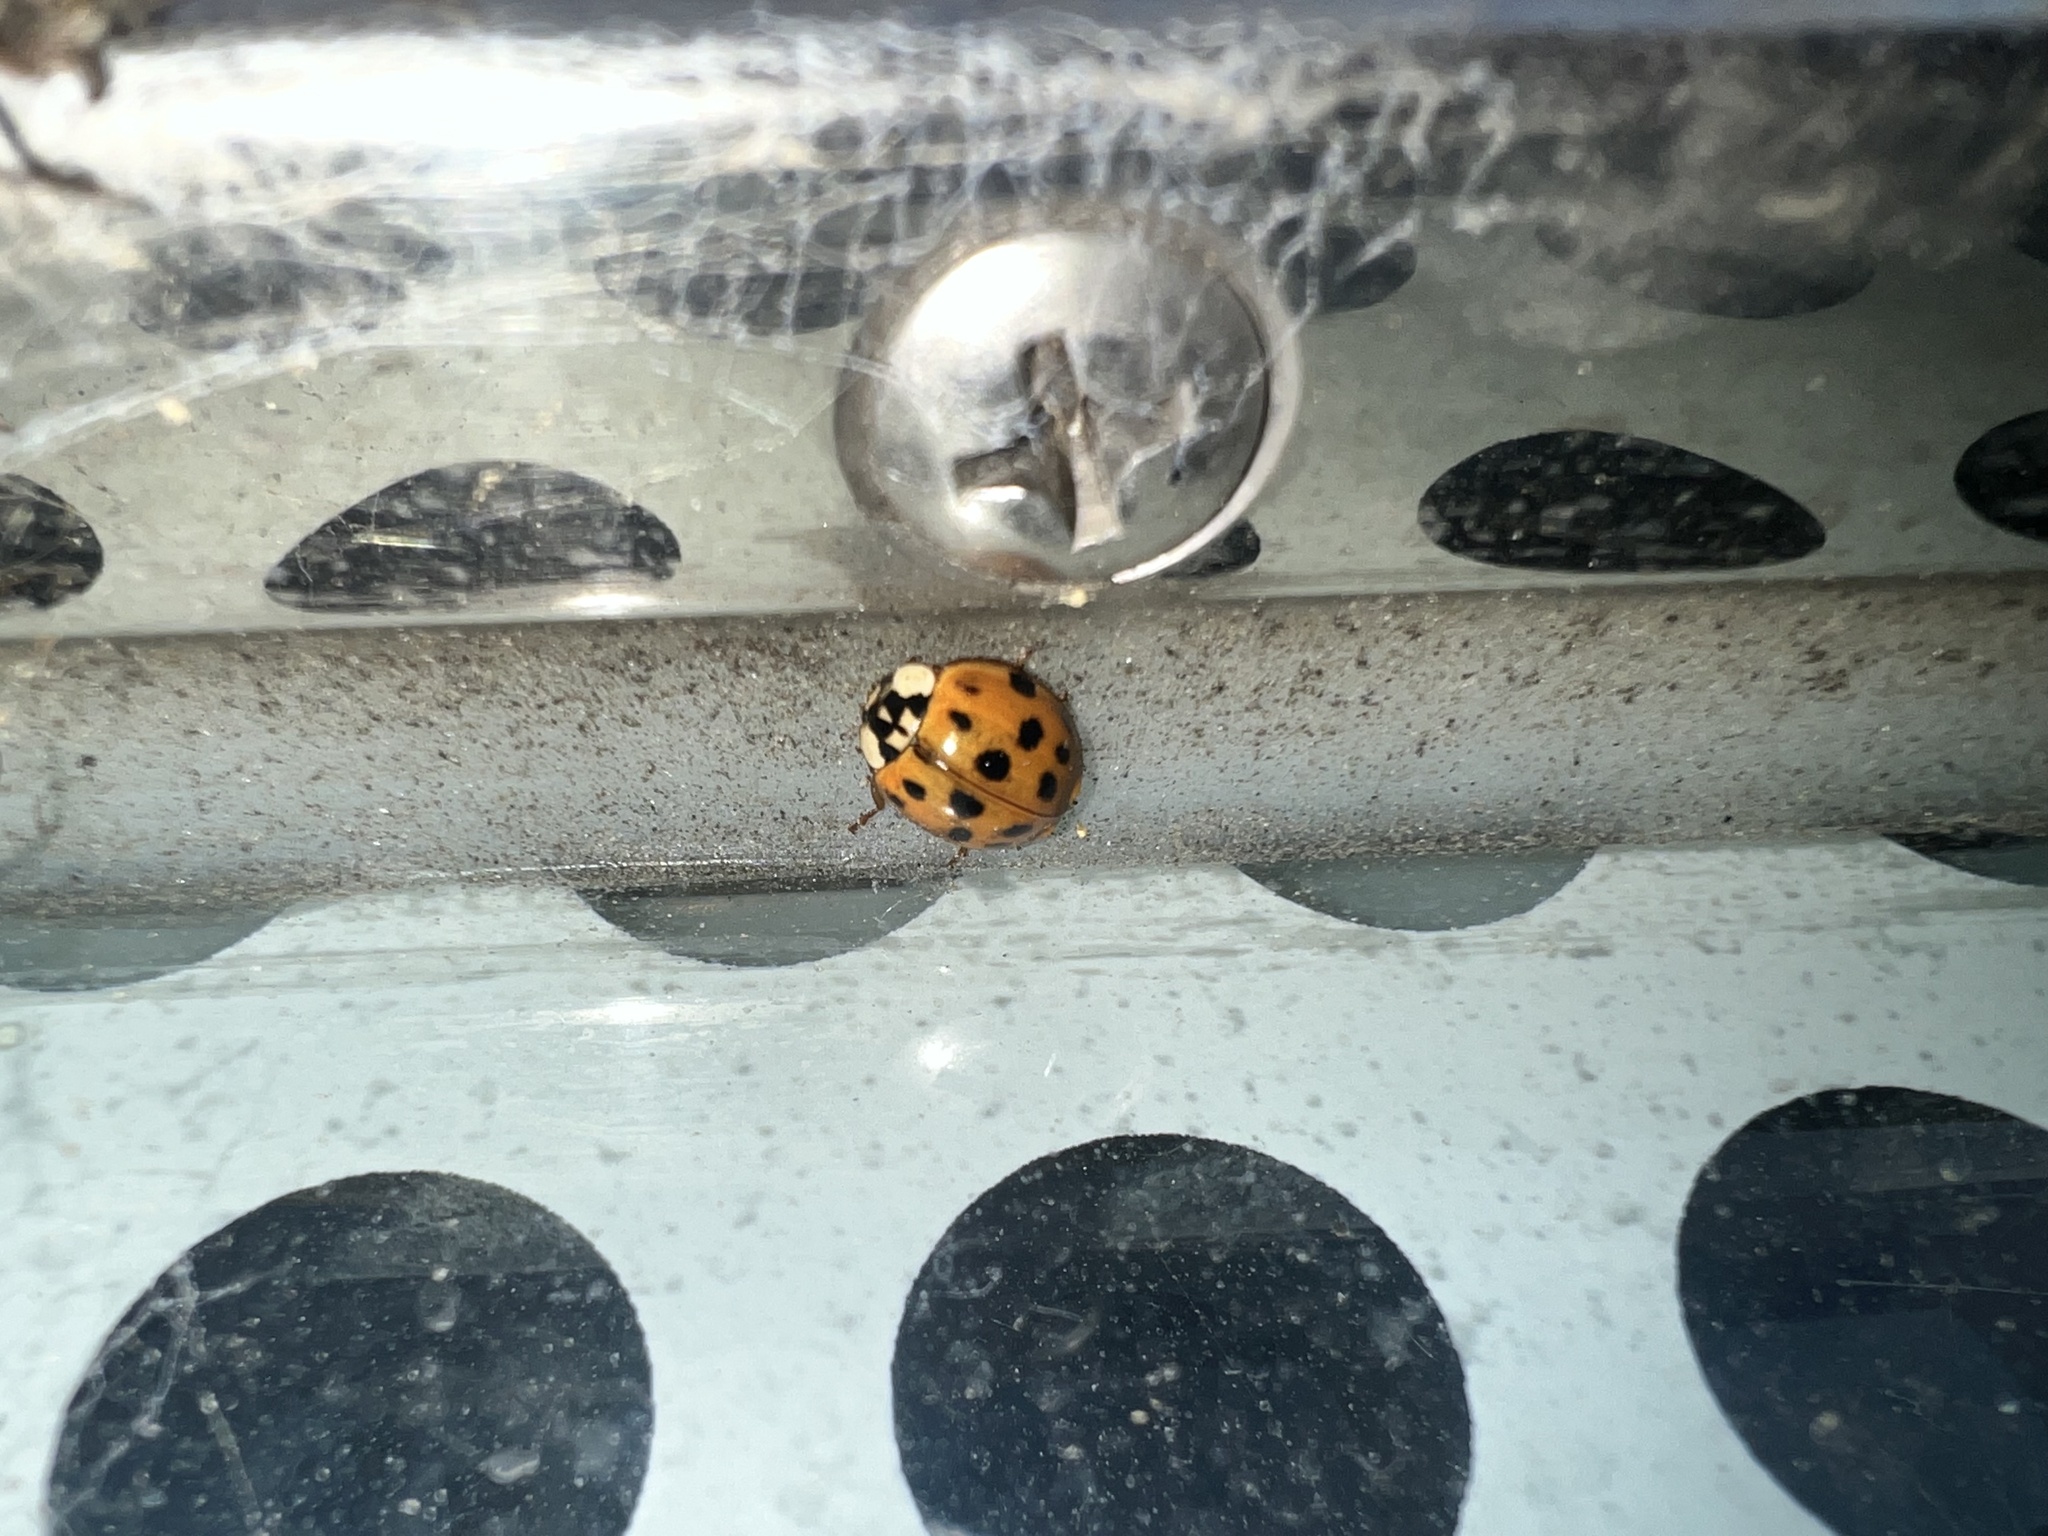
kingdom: Animalia
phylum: Arthropoda
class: Insecta
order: Coleoptera
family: Coccinellidae
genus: Harmonia
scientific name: Harmonia axyridis
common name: Harlequin ladybird
